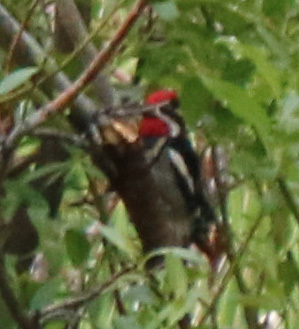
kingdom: Animalia
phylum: Chordata
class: Aves
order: Piciformes
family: Picidae
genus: Sphyrapicus
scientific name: Sphyrapicus nuchalis
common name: Red-naped sapsucker
